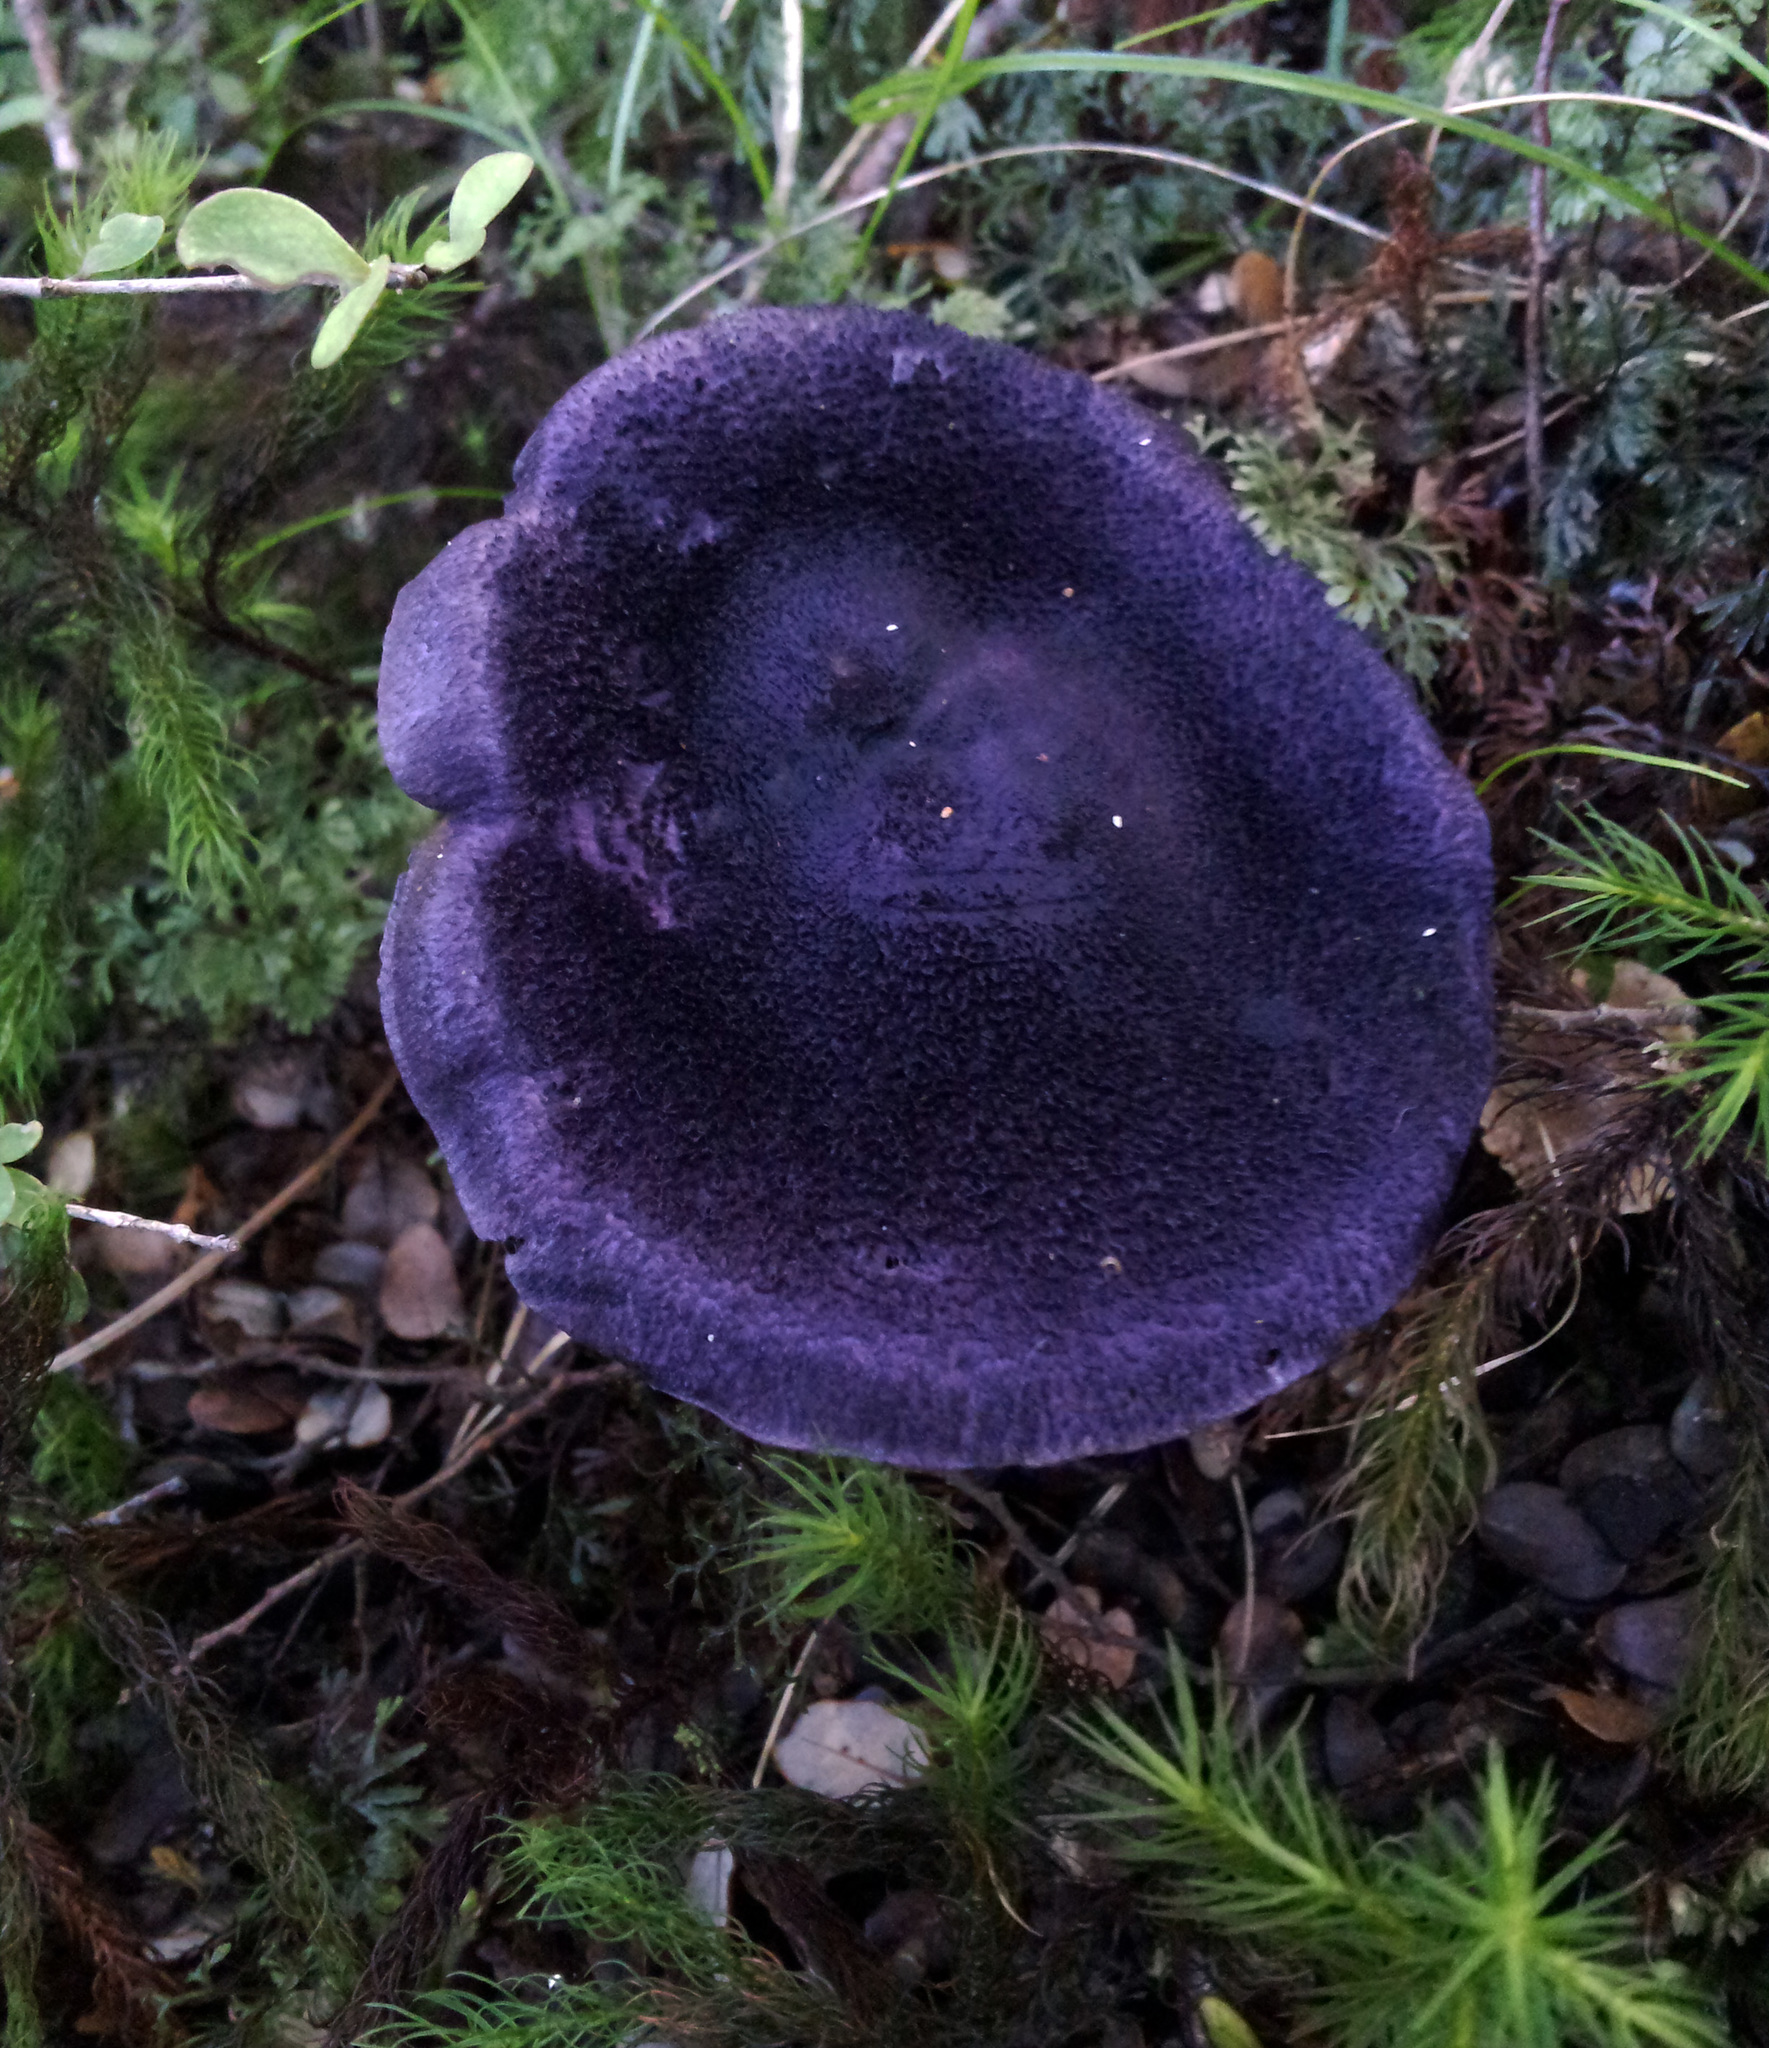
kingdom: Fungi
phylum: Basidiomycota
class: Agaricomycetes
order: Agaricales
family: Cortinariaceae
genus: Cortinarius
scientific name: Cortinarius atrolazulinus
